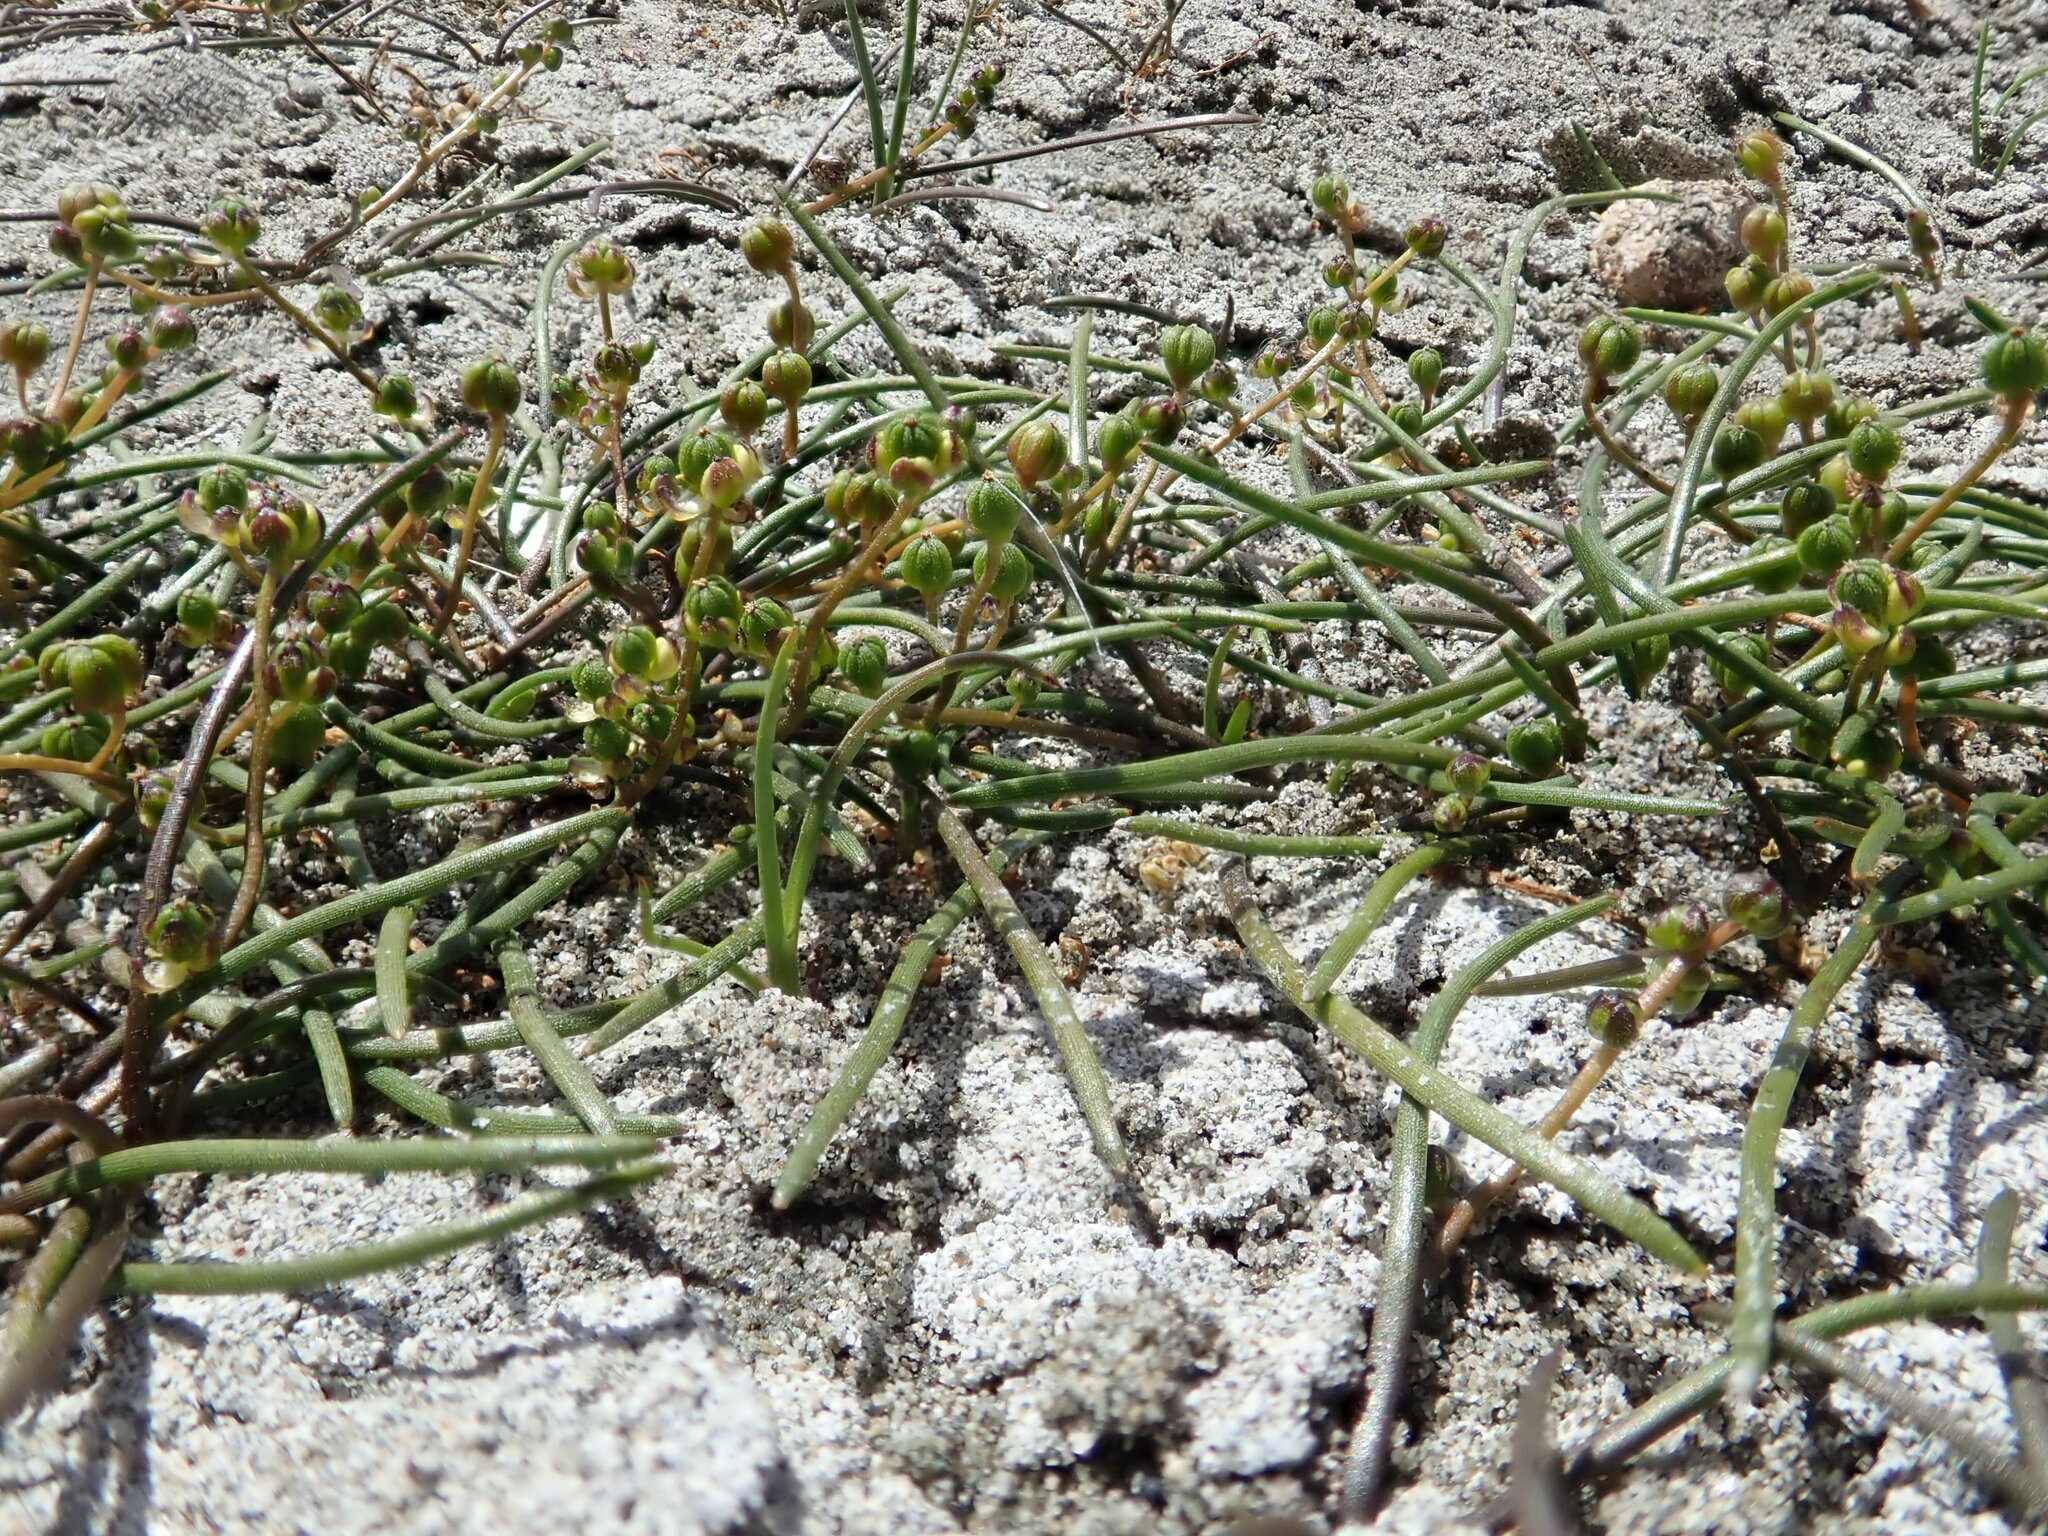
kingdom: Plantae
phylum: Tracheophyta
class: Liliopsida
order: Alismatales
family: Juncaginaceae
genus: Triglochin
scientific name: Triglochin striata
